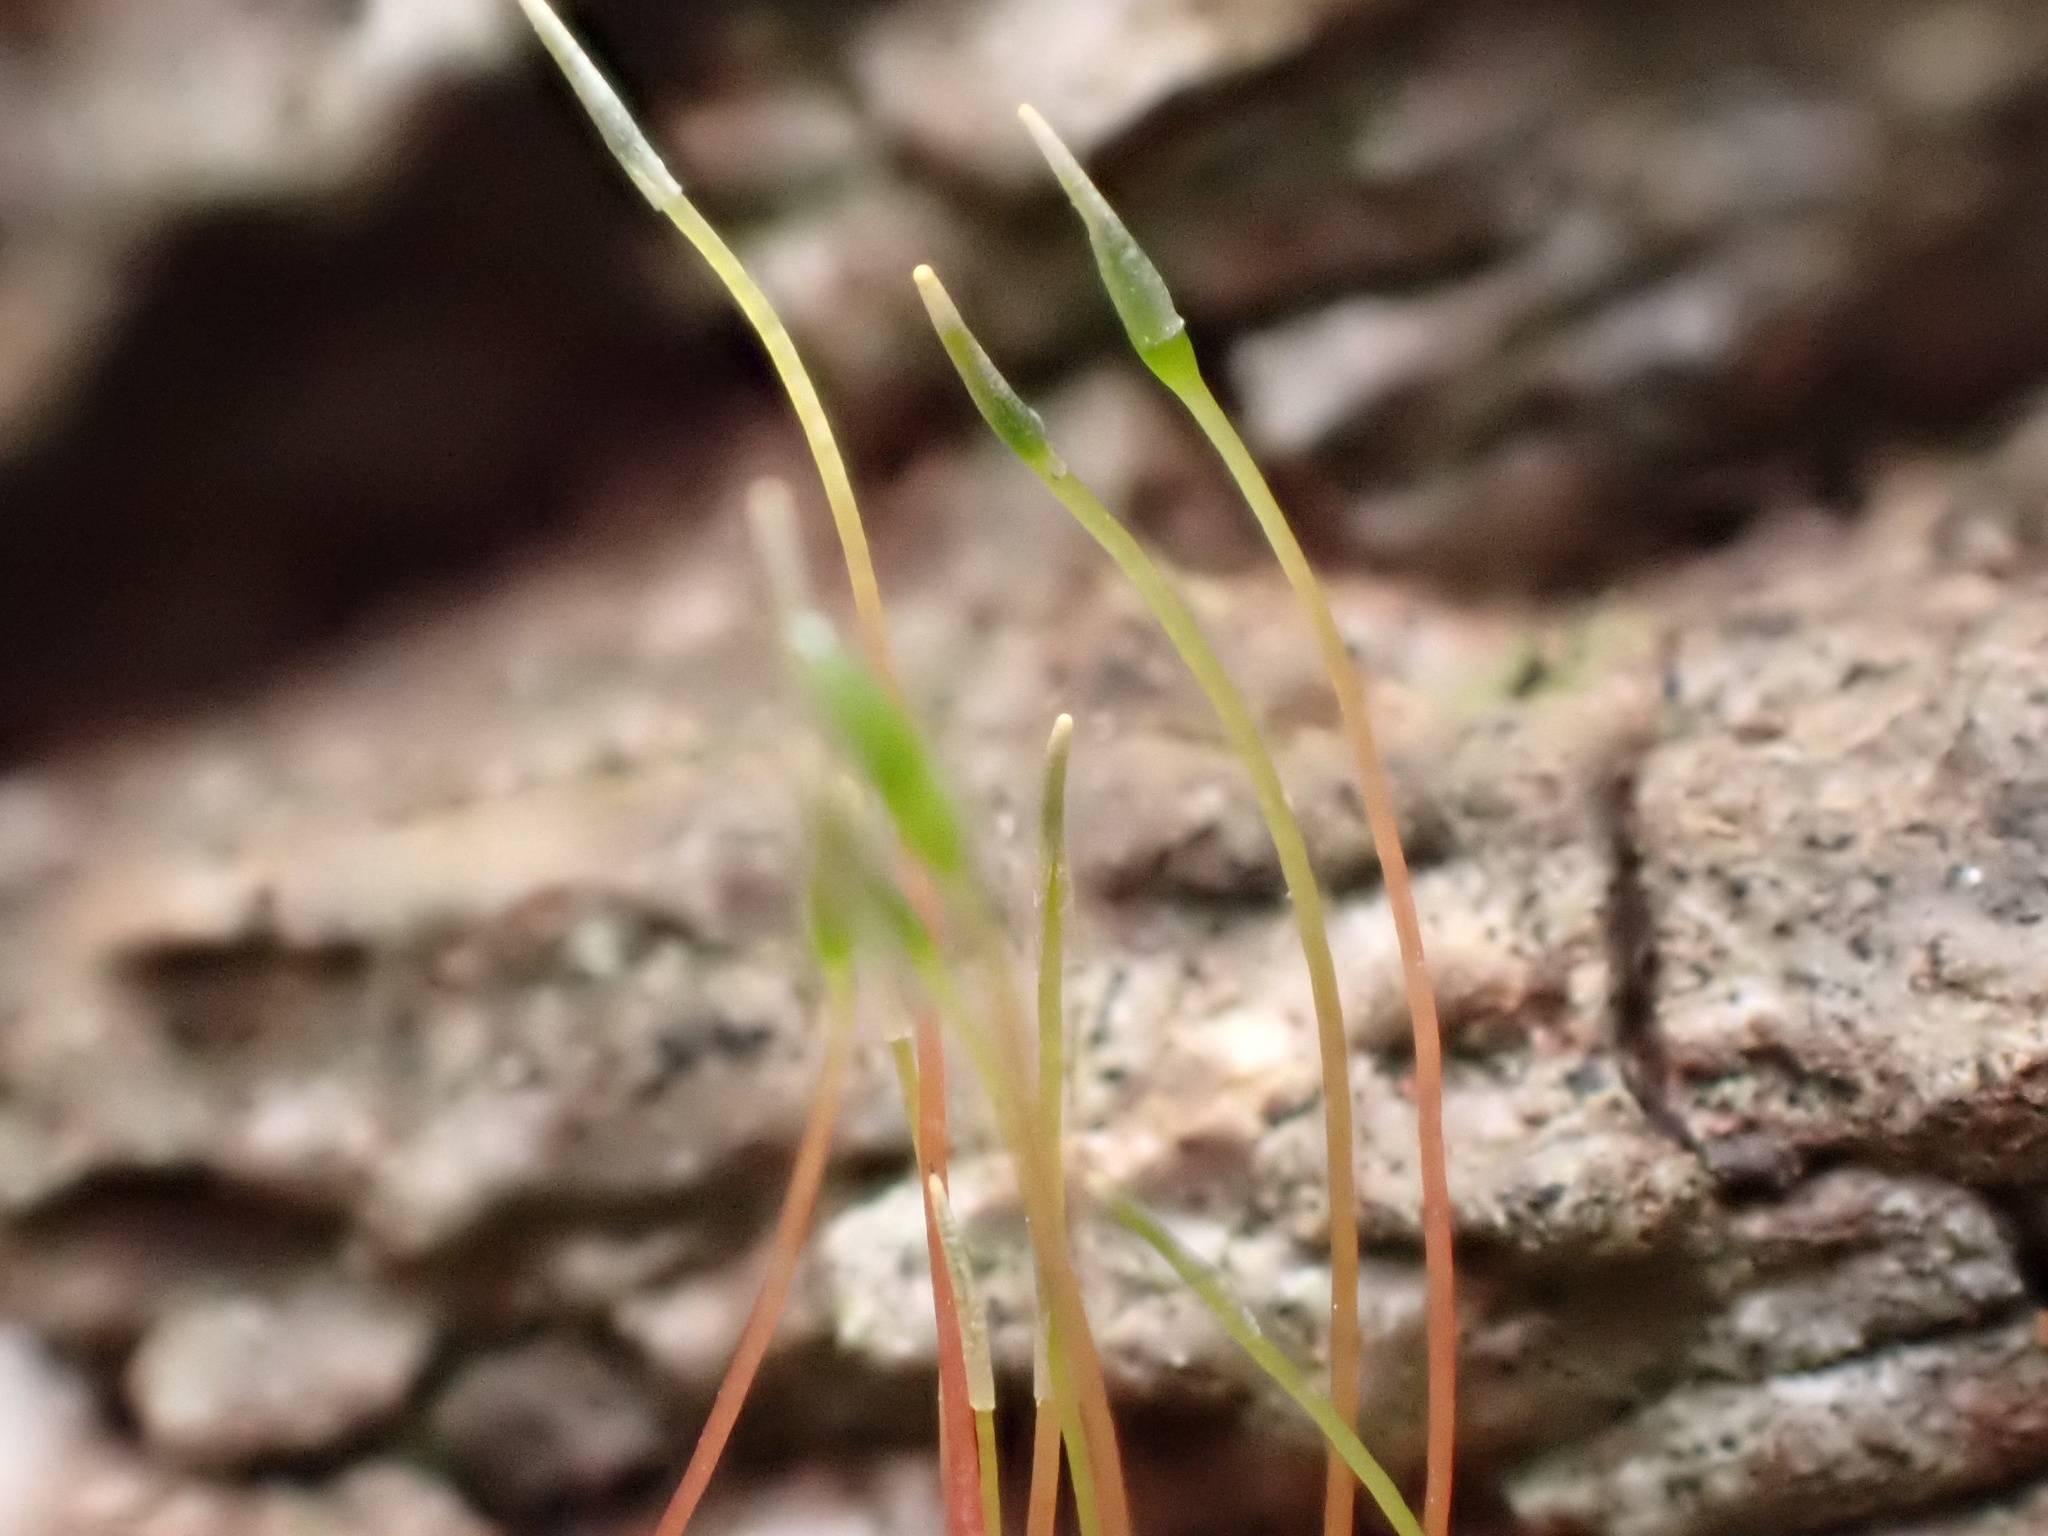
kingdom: Plantae
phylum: Bryophyta
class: Bryopsida
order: Hypnales
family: Amblystegiaceae
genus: Amblystegium
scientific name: Amblystegium serpens
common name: Jurkatzka's feather moss
